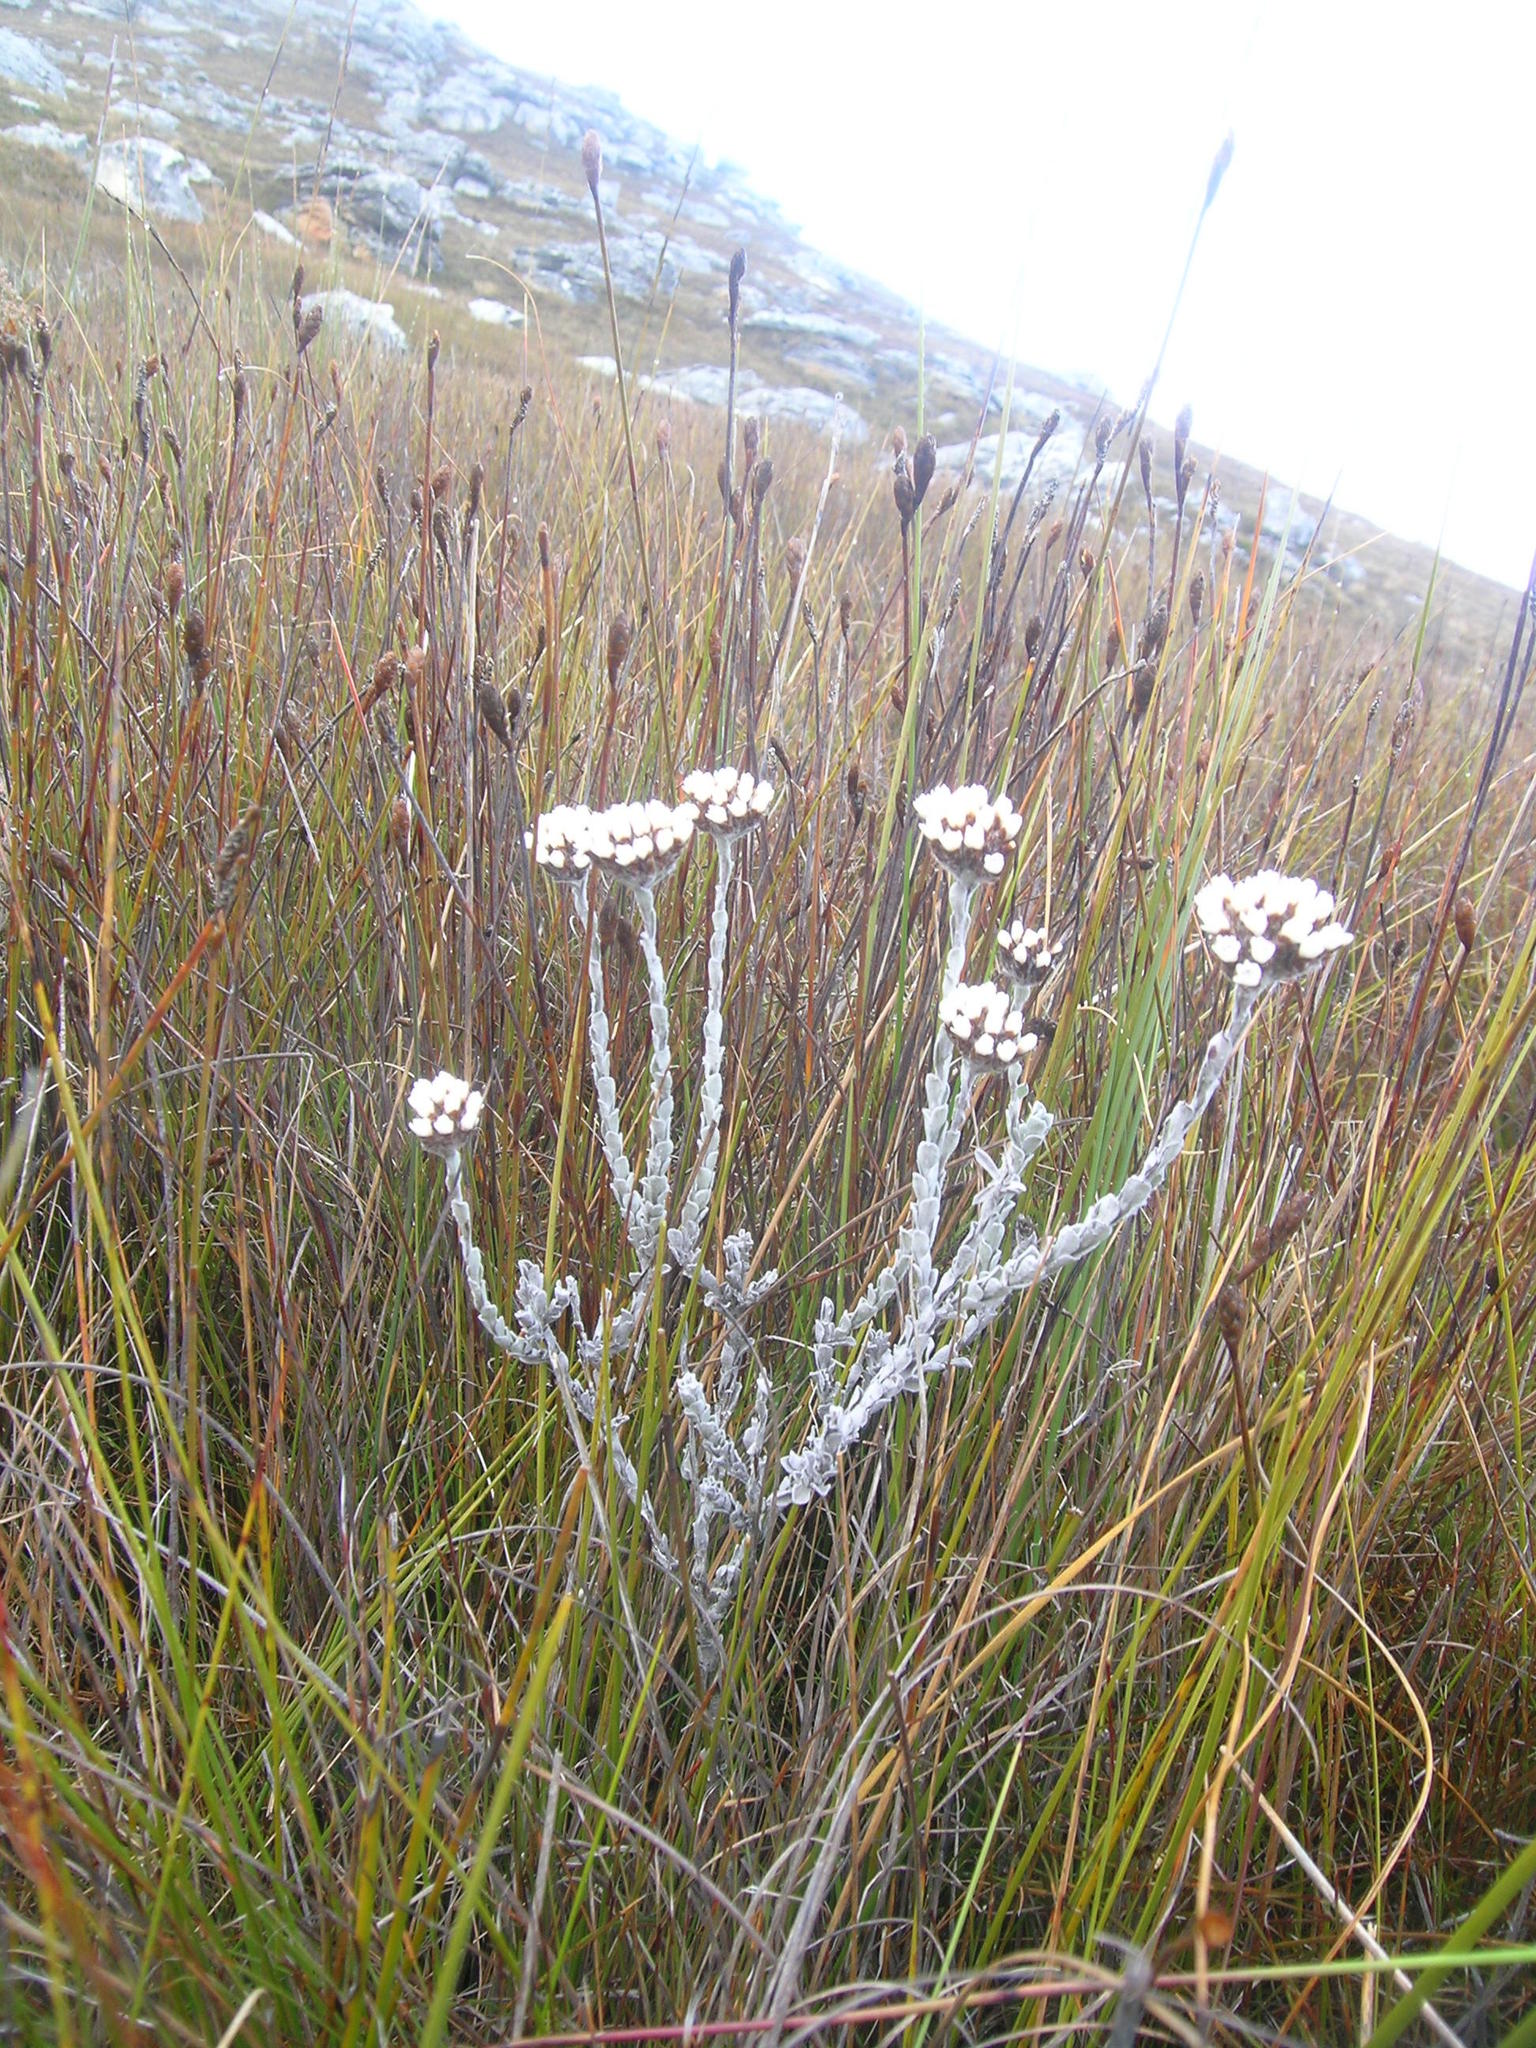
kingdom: Plantae
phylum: Tracheophyta
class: Magnoliopsida
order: Asterales
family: Asteraceae
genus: Langebergia
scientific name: Langebergia canescens
